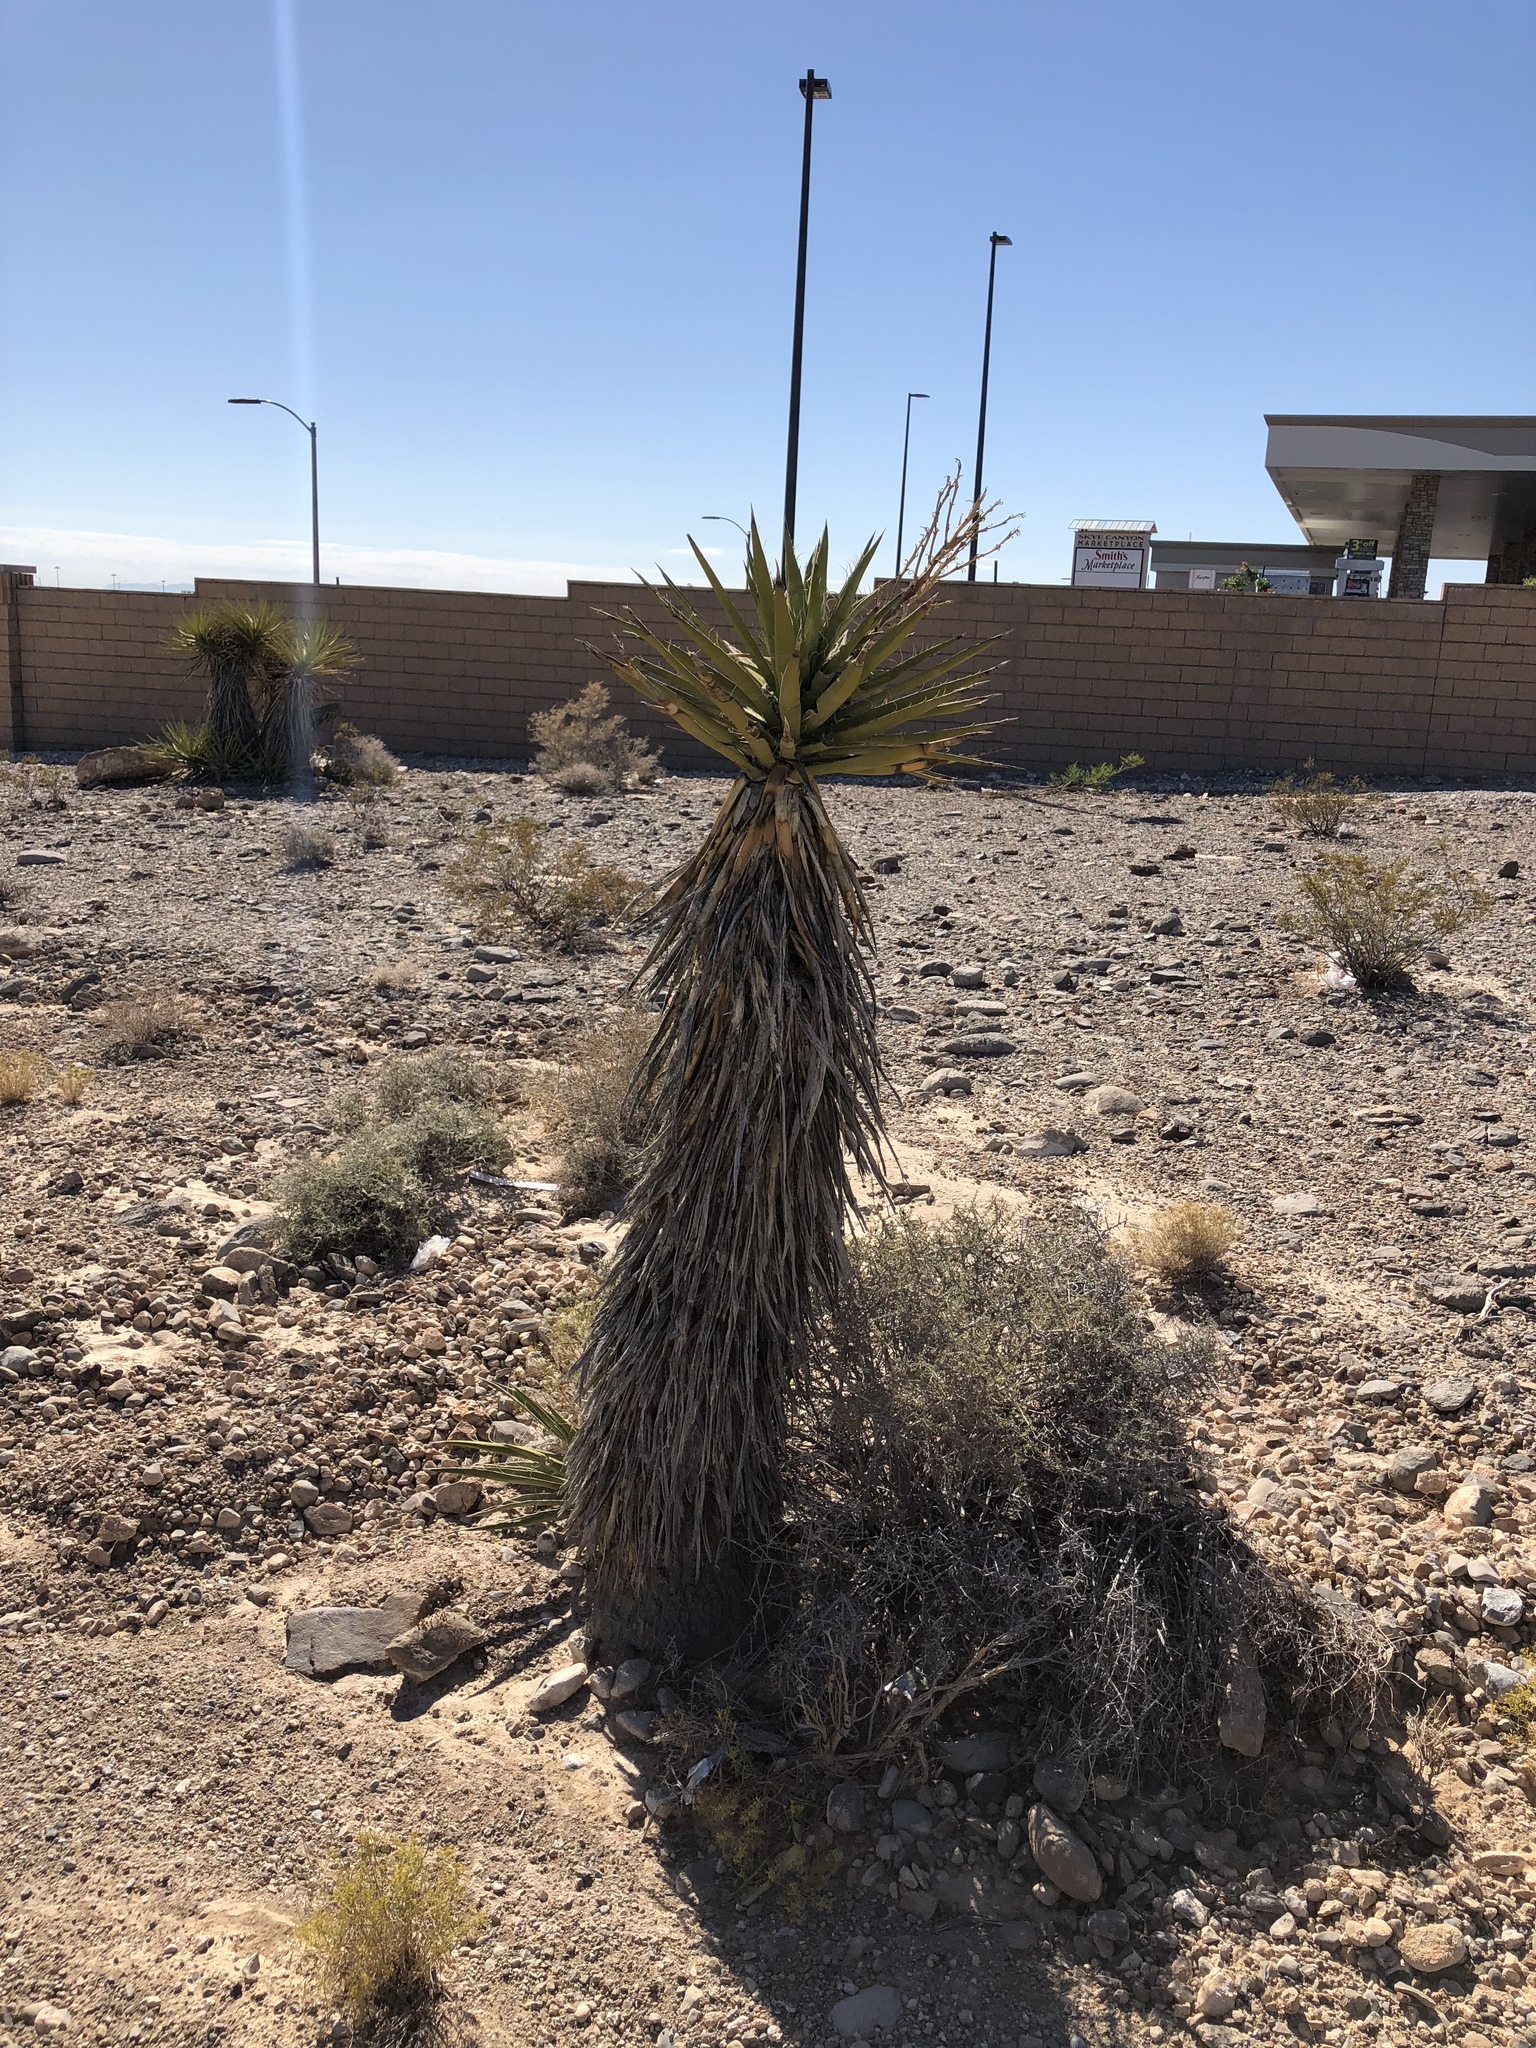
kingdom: Plantae
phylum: Tracheophyta
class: Liliopsida
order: Asparagales
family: Asparagaceae
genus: Yucca
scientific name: Yucca schidigera
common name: Mojave yucca
